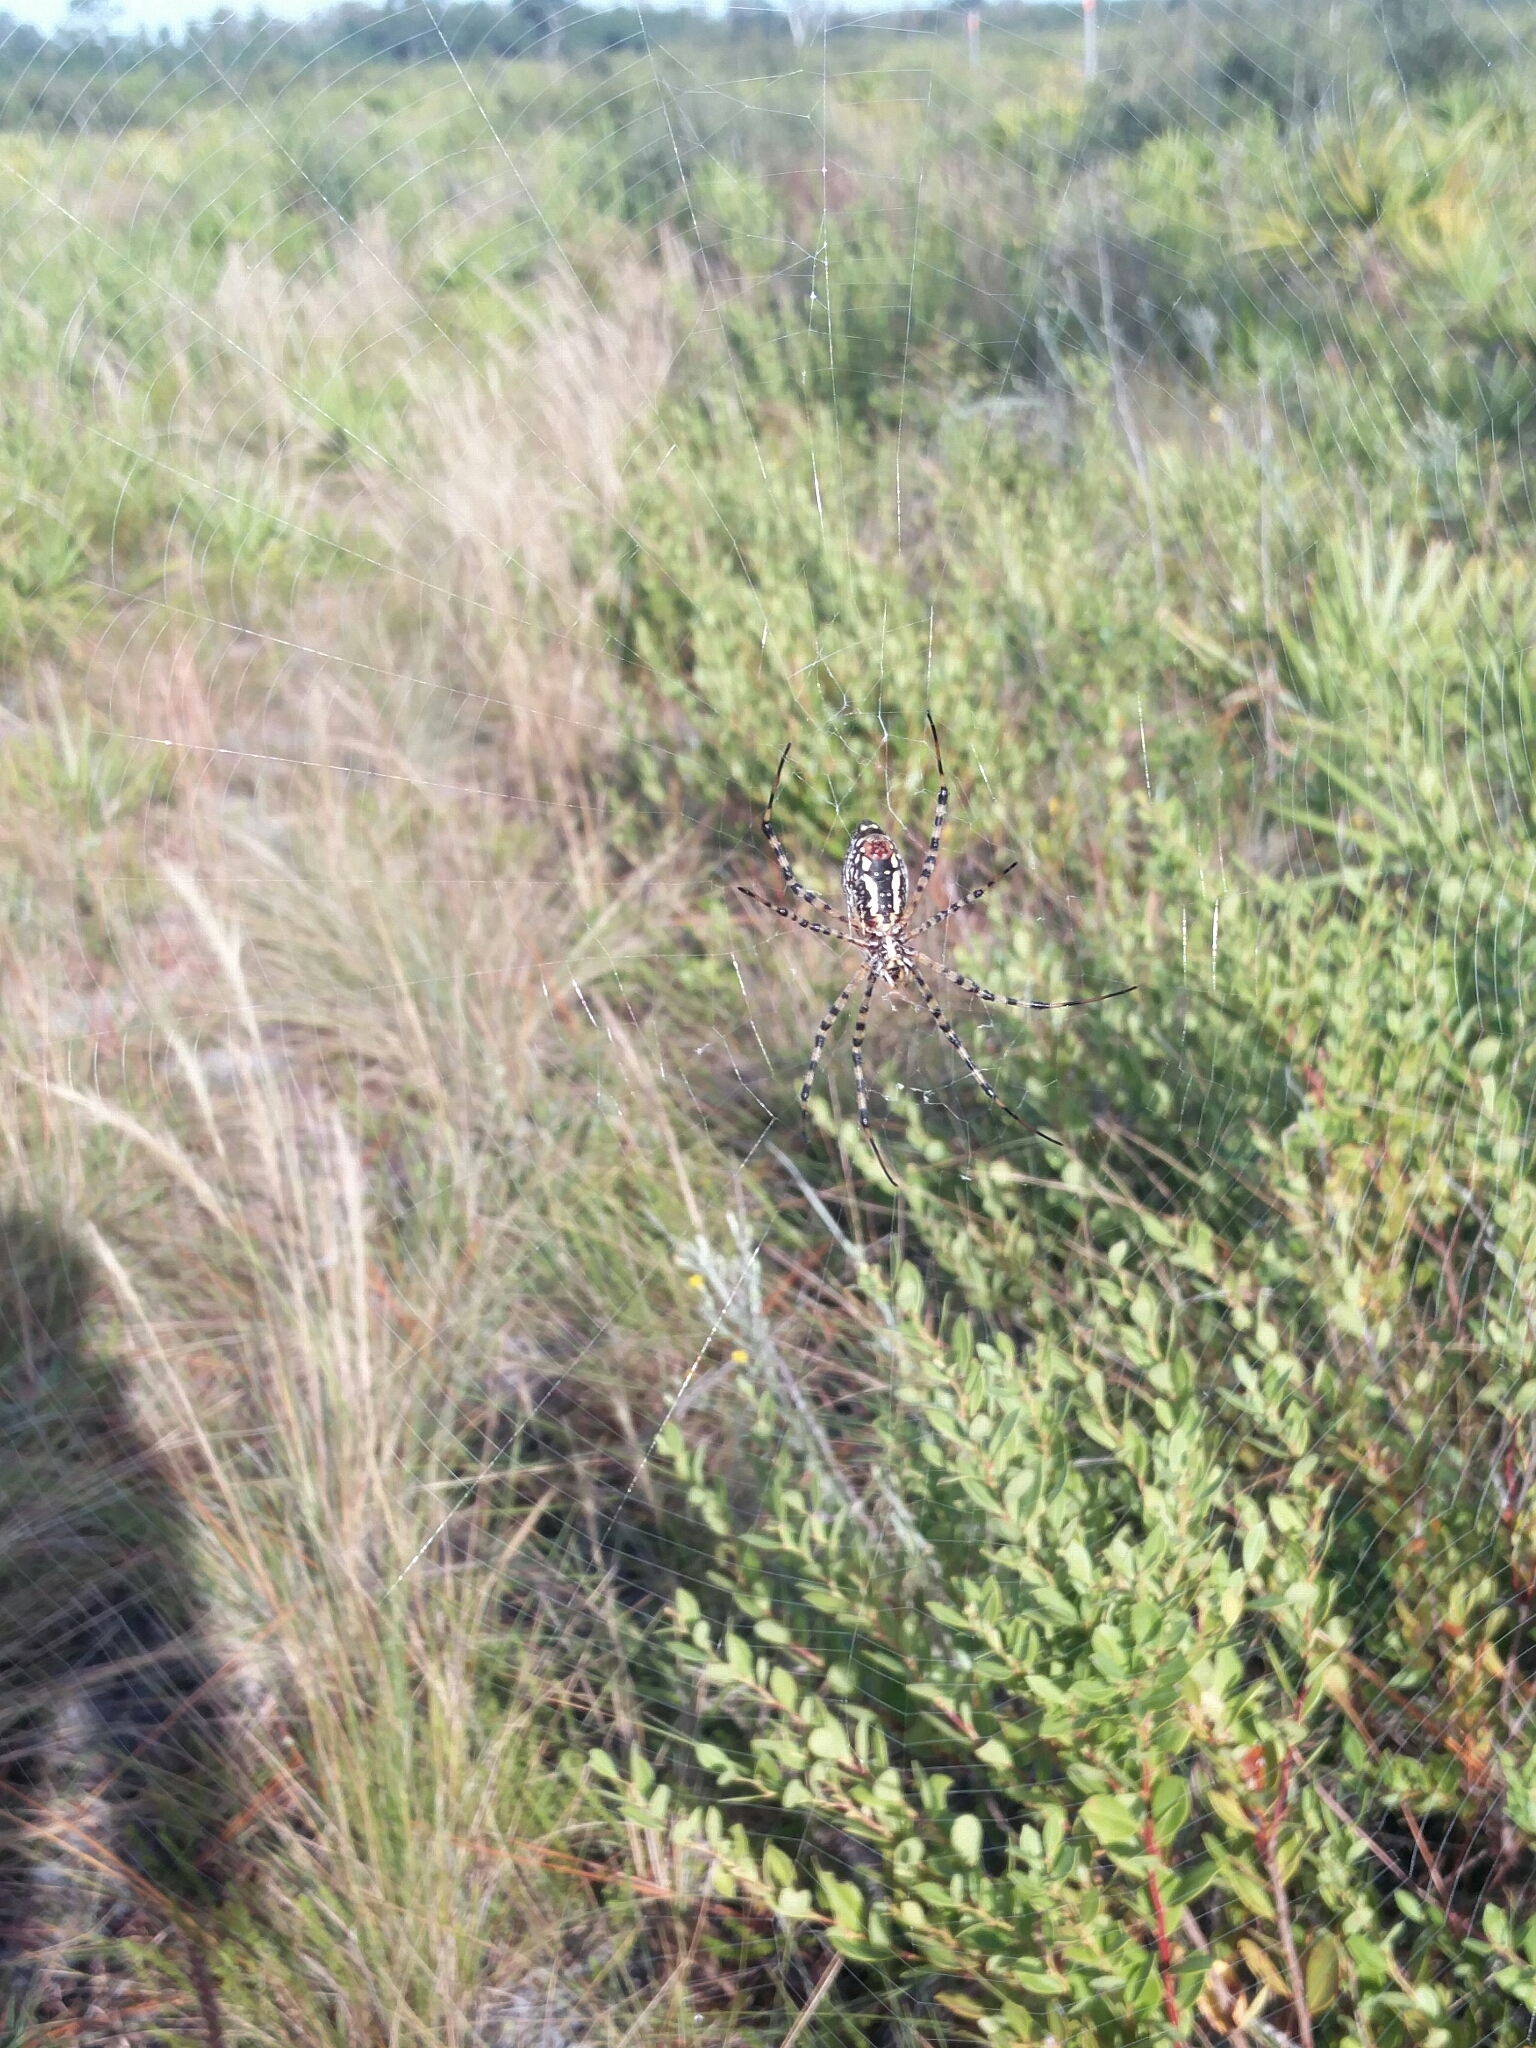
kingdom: Animalia
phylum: Arthropoda
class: Arachnida
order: Araneae
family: Araneidae
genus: Argiope
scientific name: Argiope trifasciata
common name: Banded garden spider
